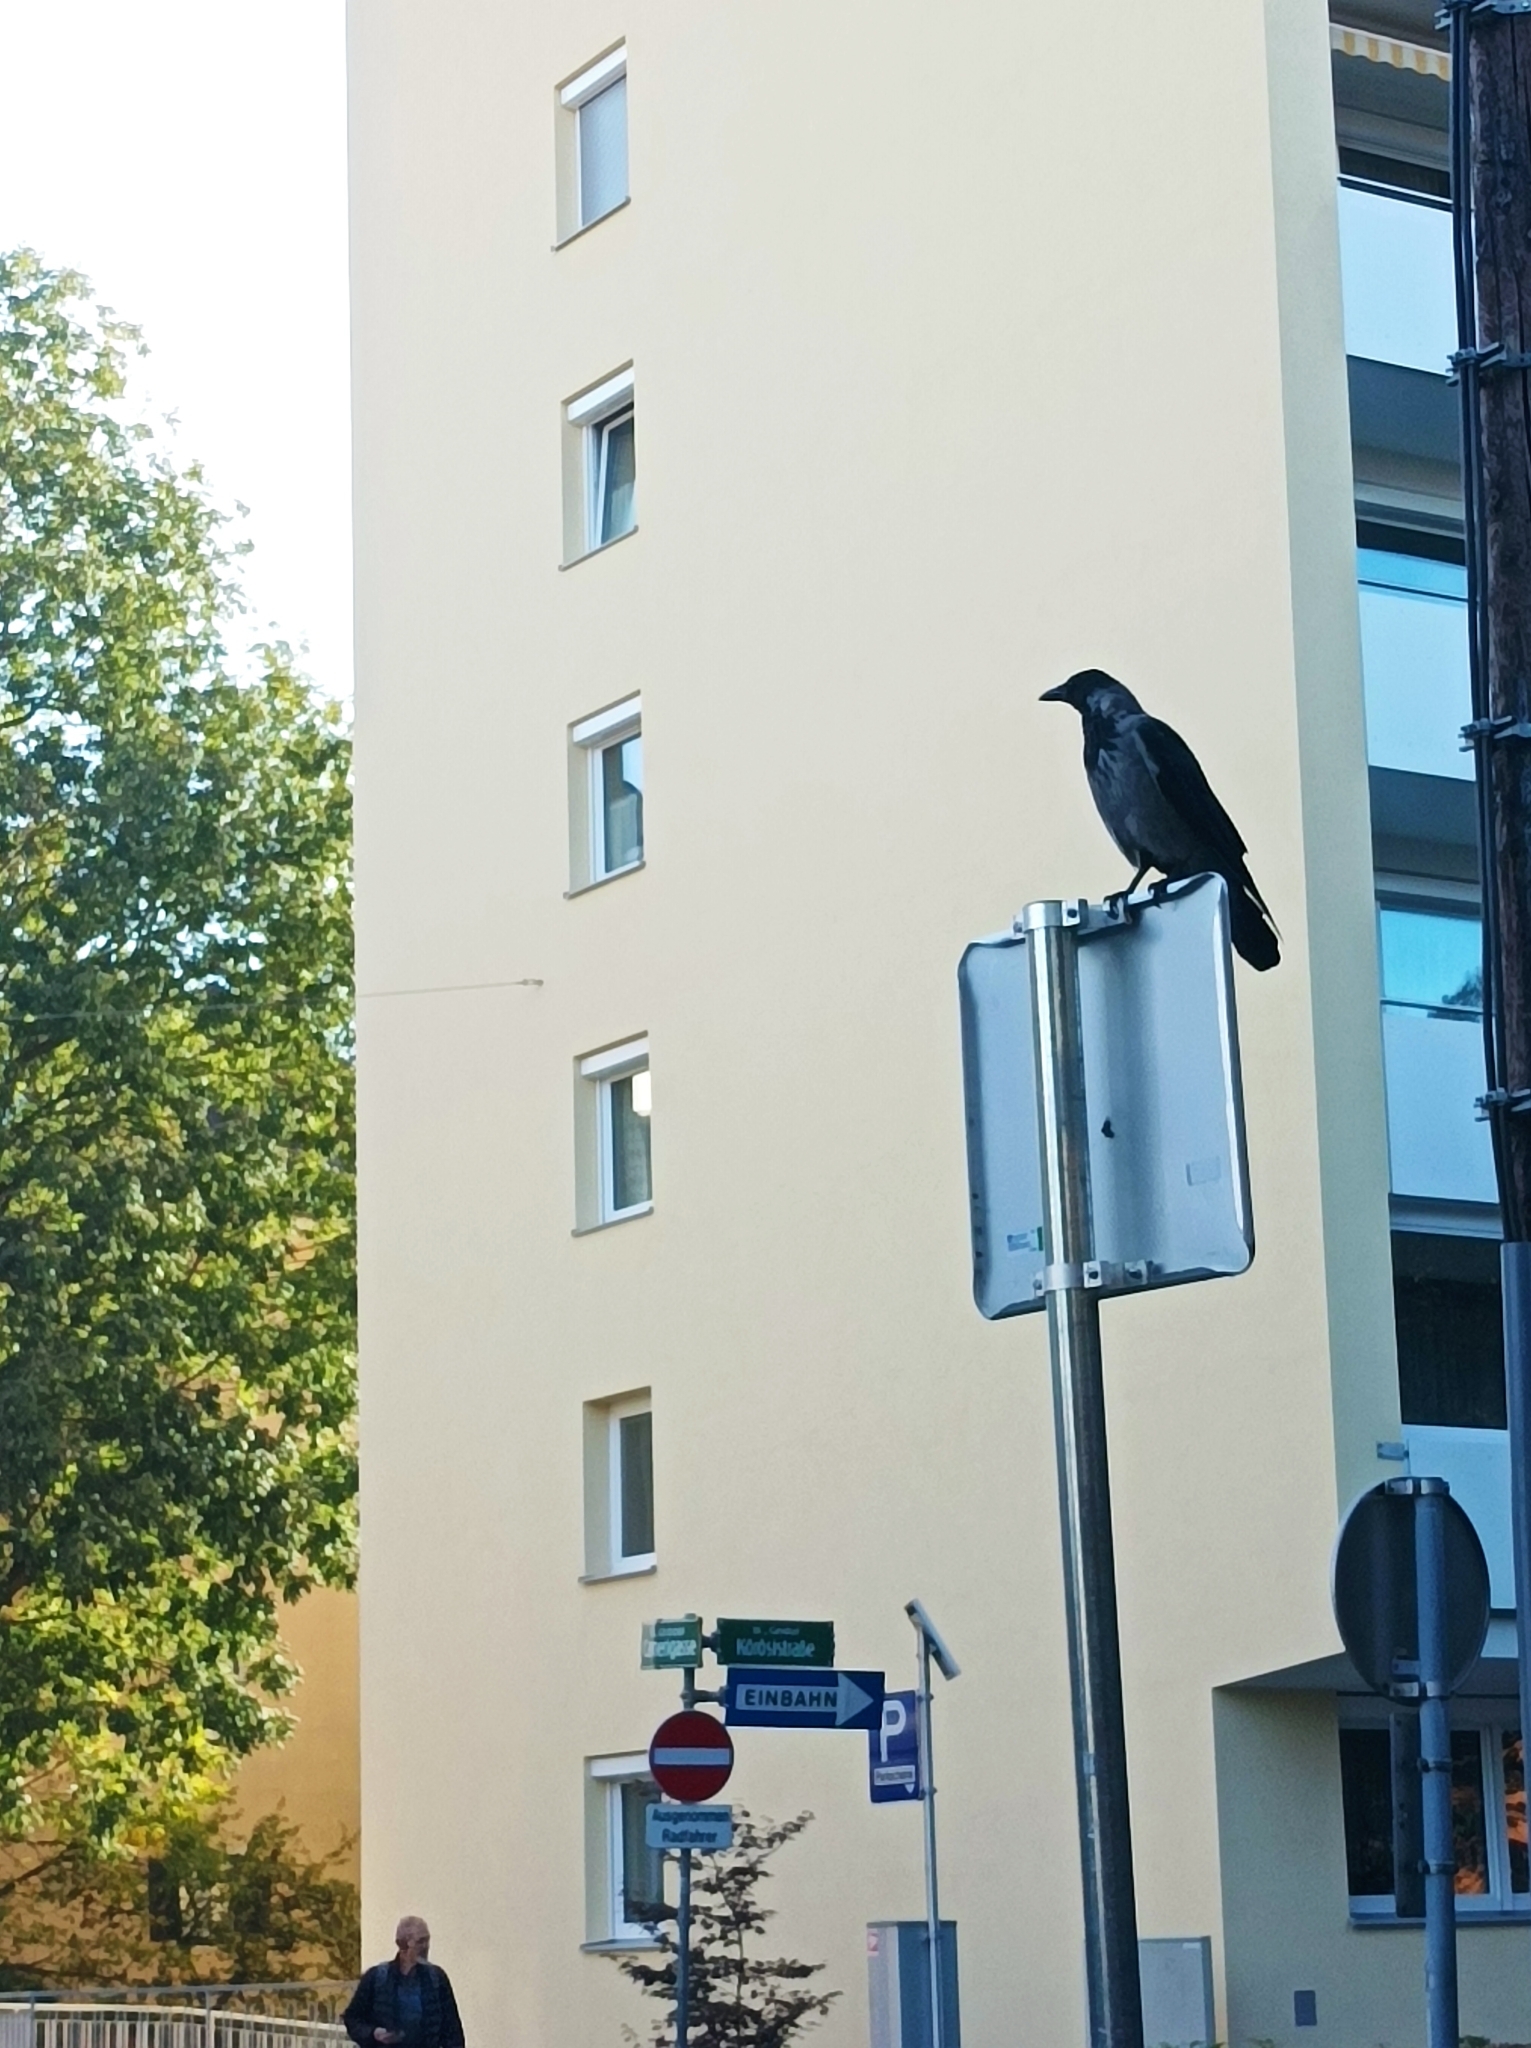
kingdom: Animalia
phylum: Chordata
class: Aves
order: Passeriformes
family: Corvidae
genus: Corvus
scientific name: Corvus cornix
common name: Hooded crow
